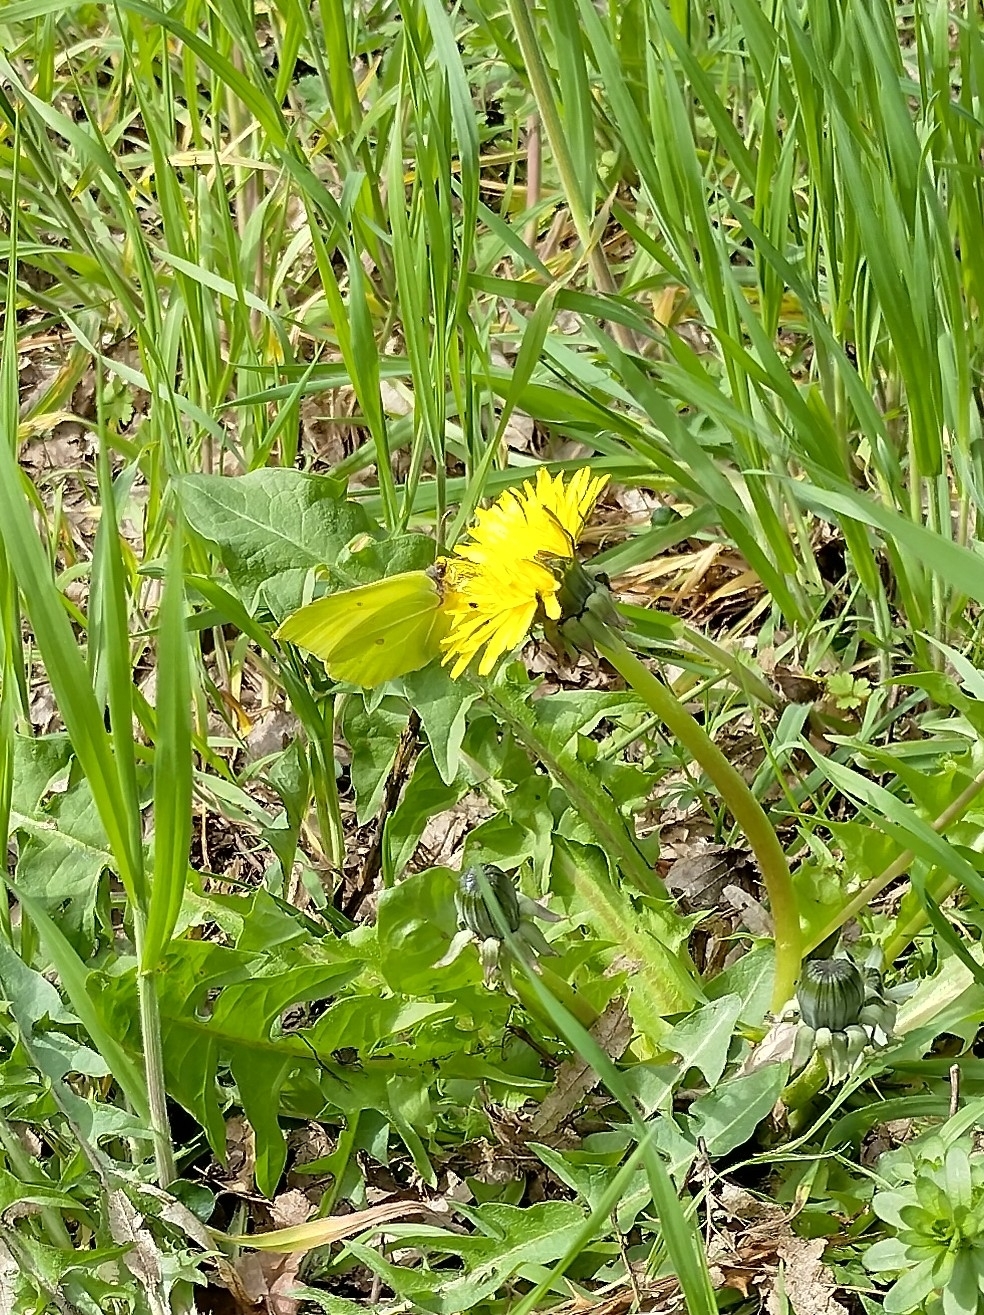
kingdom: Animalia
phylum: Arthropoda
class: Insecta
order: Lepidoptera
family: Pieridae
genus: Gonepteryx
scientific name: Gonepteryx rhamni
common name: Brimstone
